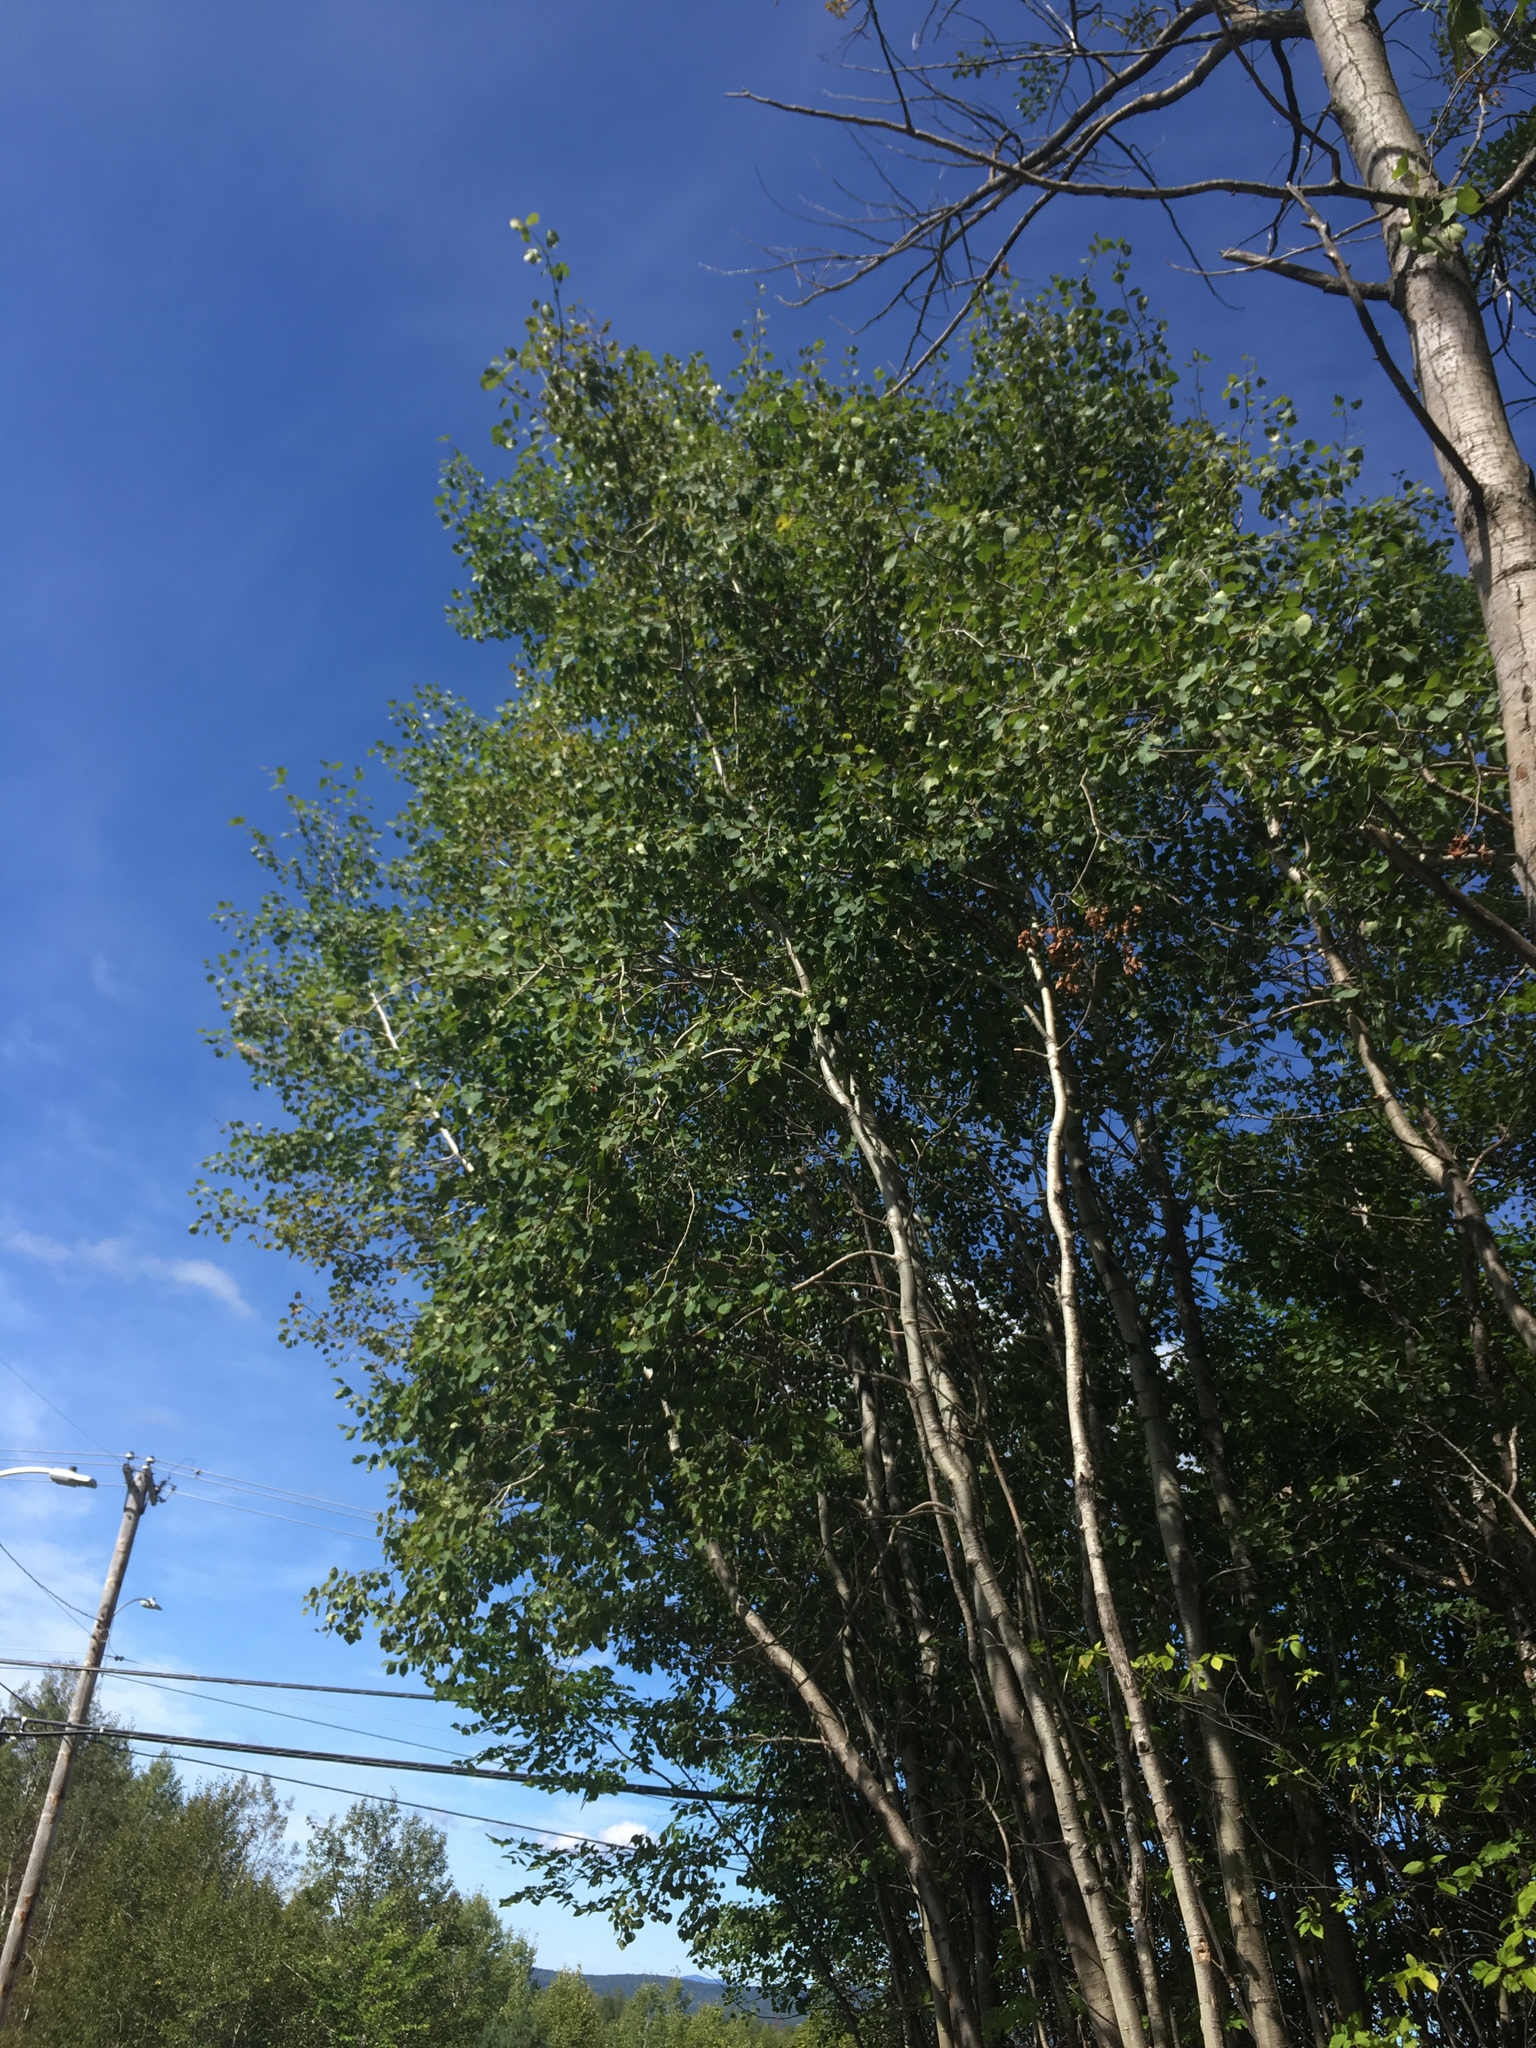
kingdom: Plantae
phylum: Tracheophyta
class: Magnoliopsida
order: Malpighiales
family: Salicaceae
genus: Populus
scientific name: Populus tremuloides
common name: Quaking aspen
